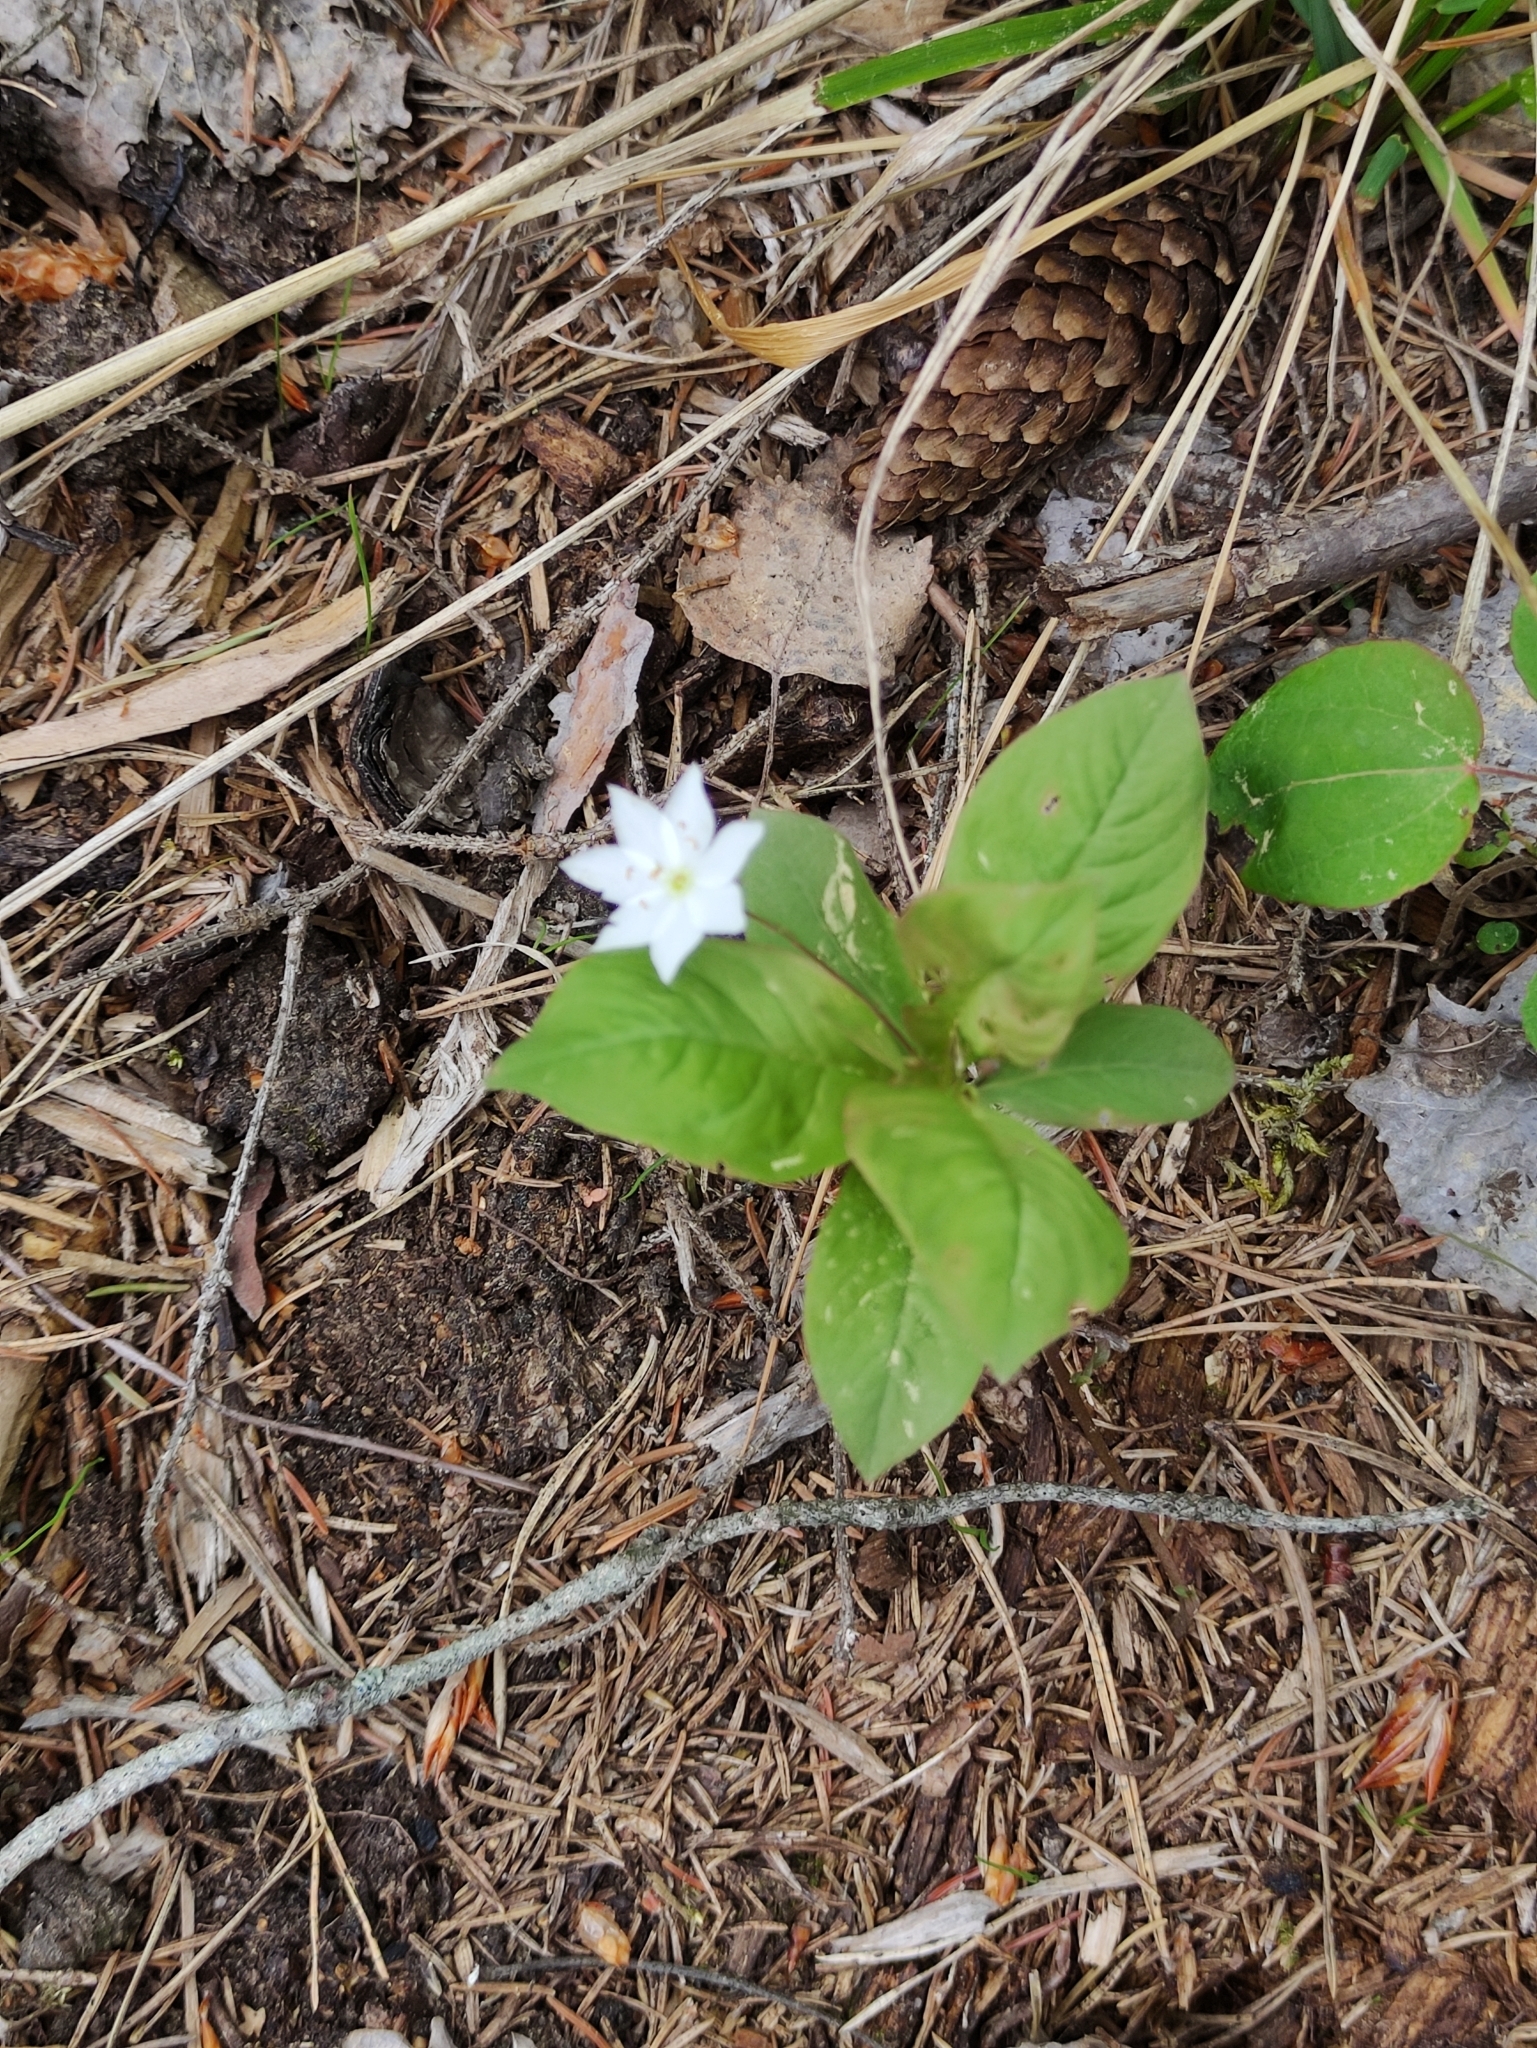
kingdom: Plantae
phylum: Tracheophyta
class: Magnoliopsida
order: Ericales
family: Primulaceae
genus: Lysimachia
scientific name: Lysimachia europaea
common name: Arctic starflower
